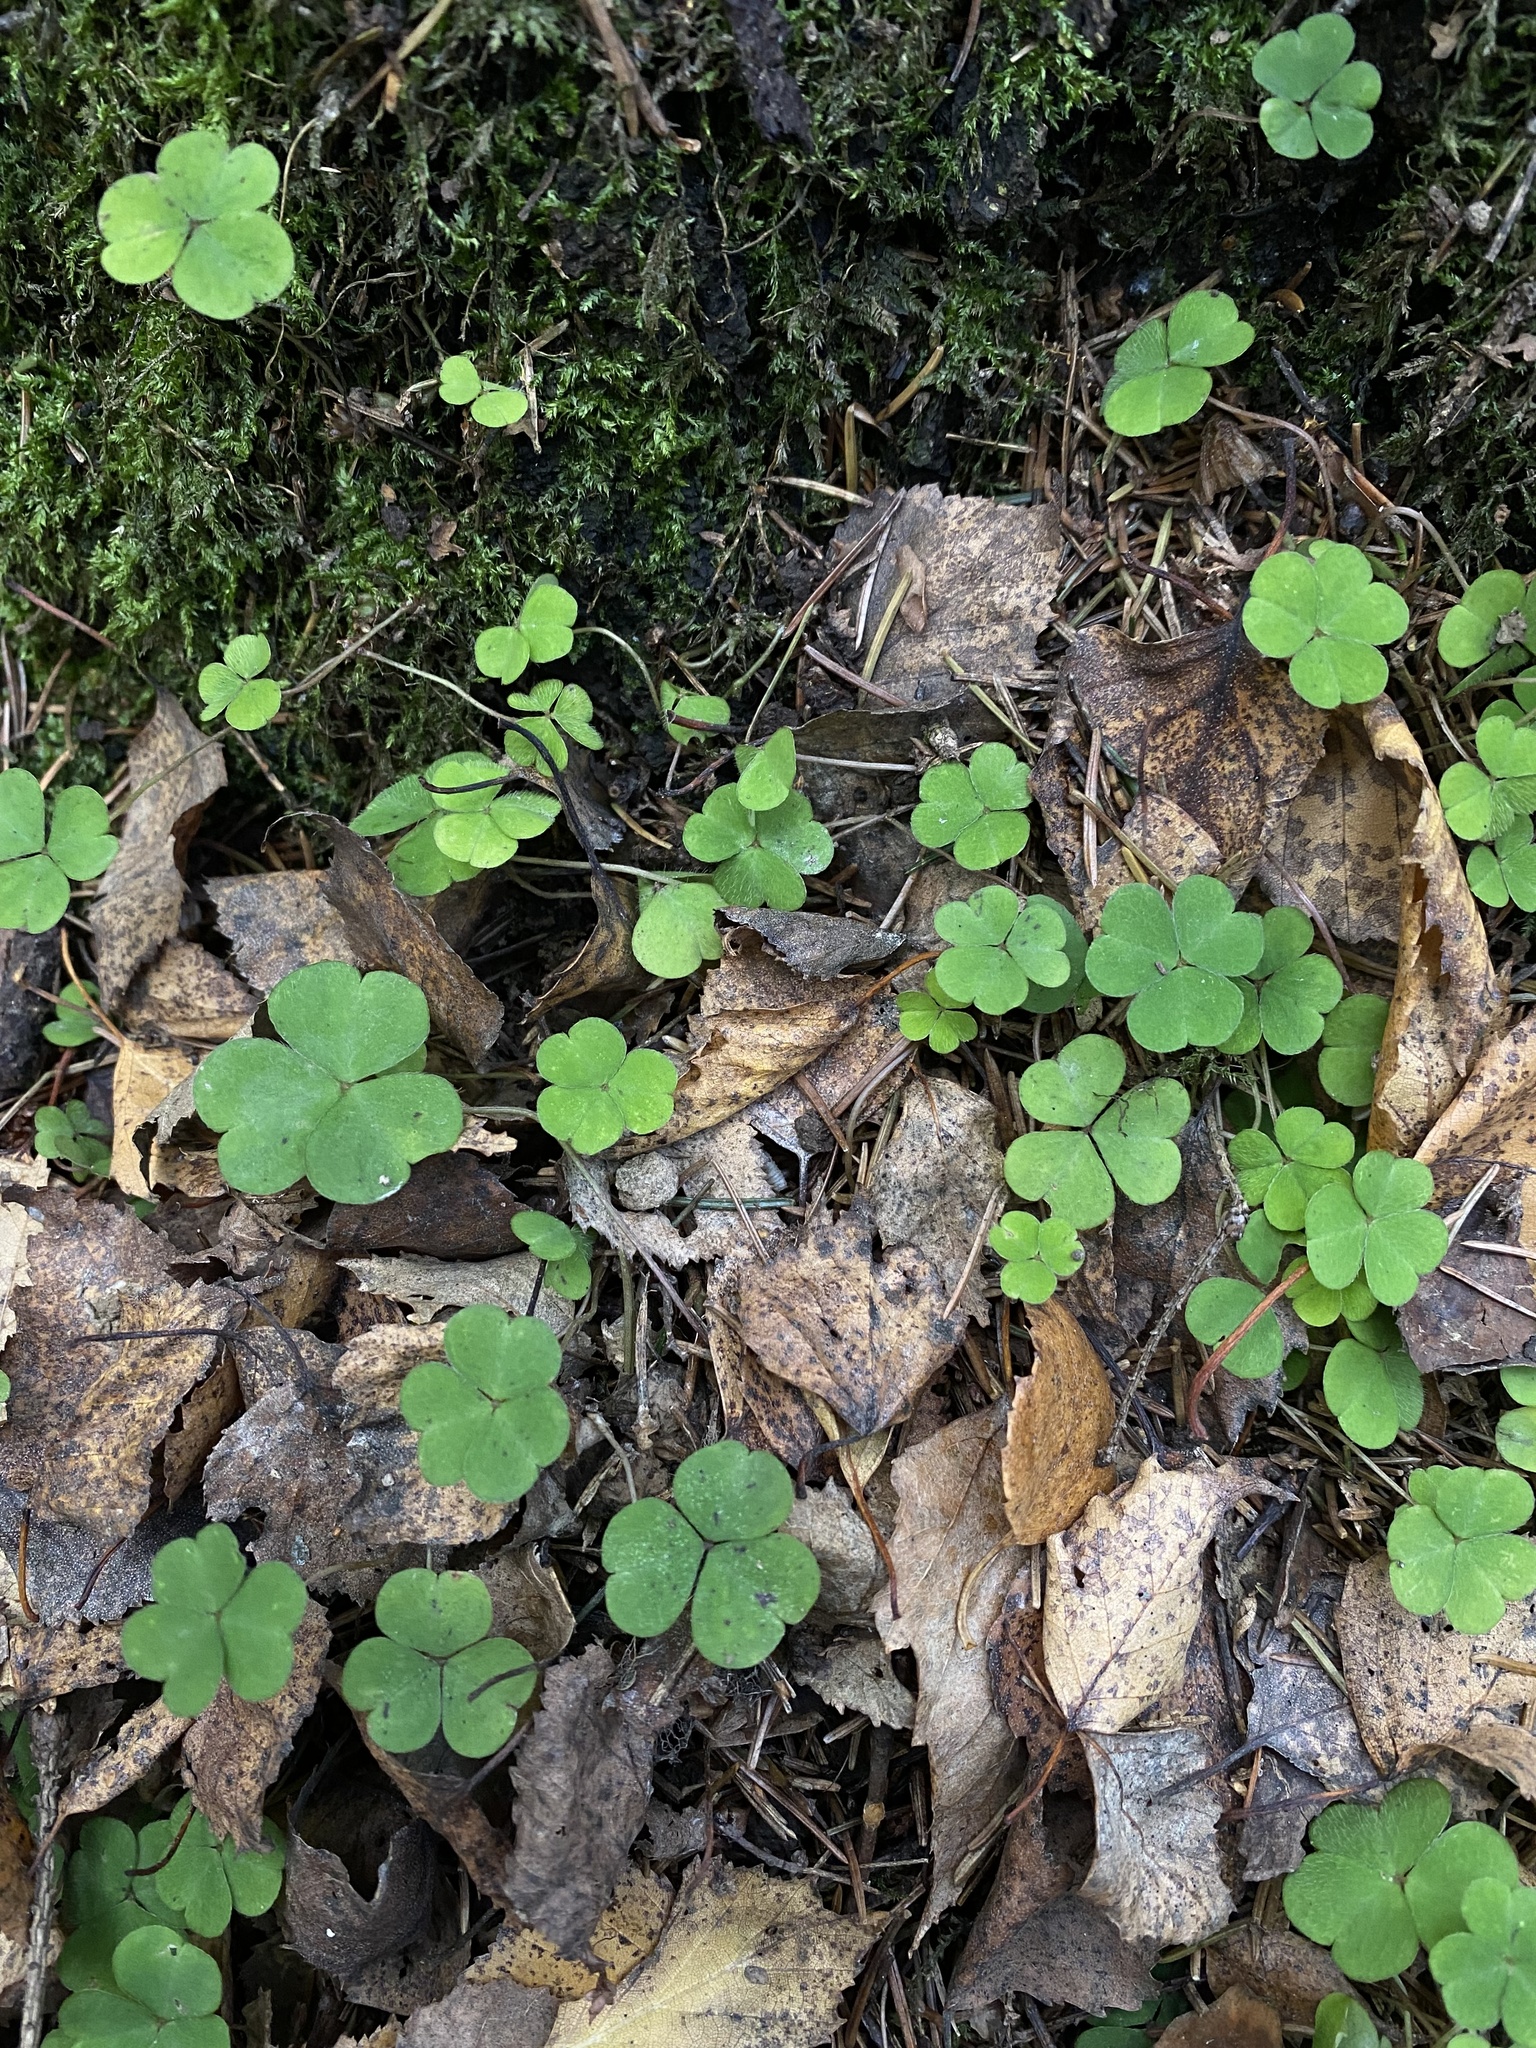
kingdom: Plantae
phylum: Tracheophyta
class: Magnoliopsida
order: Oxalidales
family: Oxalidaceae
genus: Oxalis
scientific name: Oxalis acetosella
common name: Wood-sorrel
